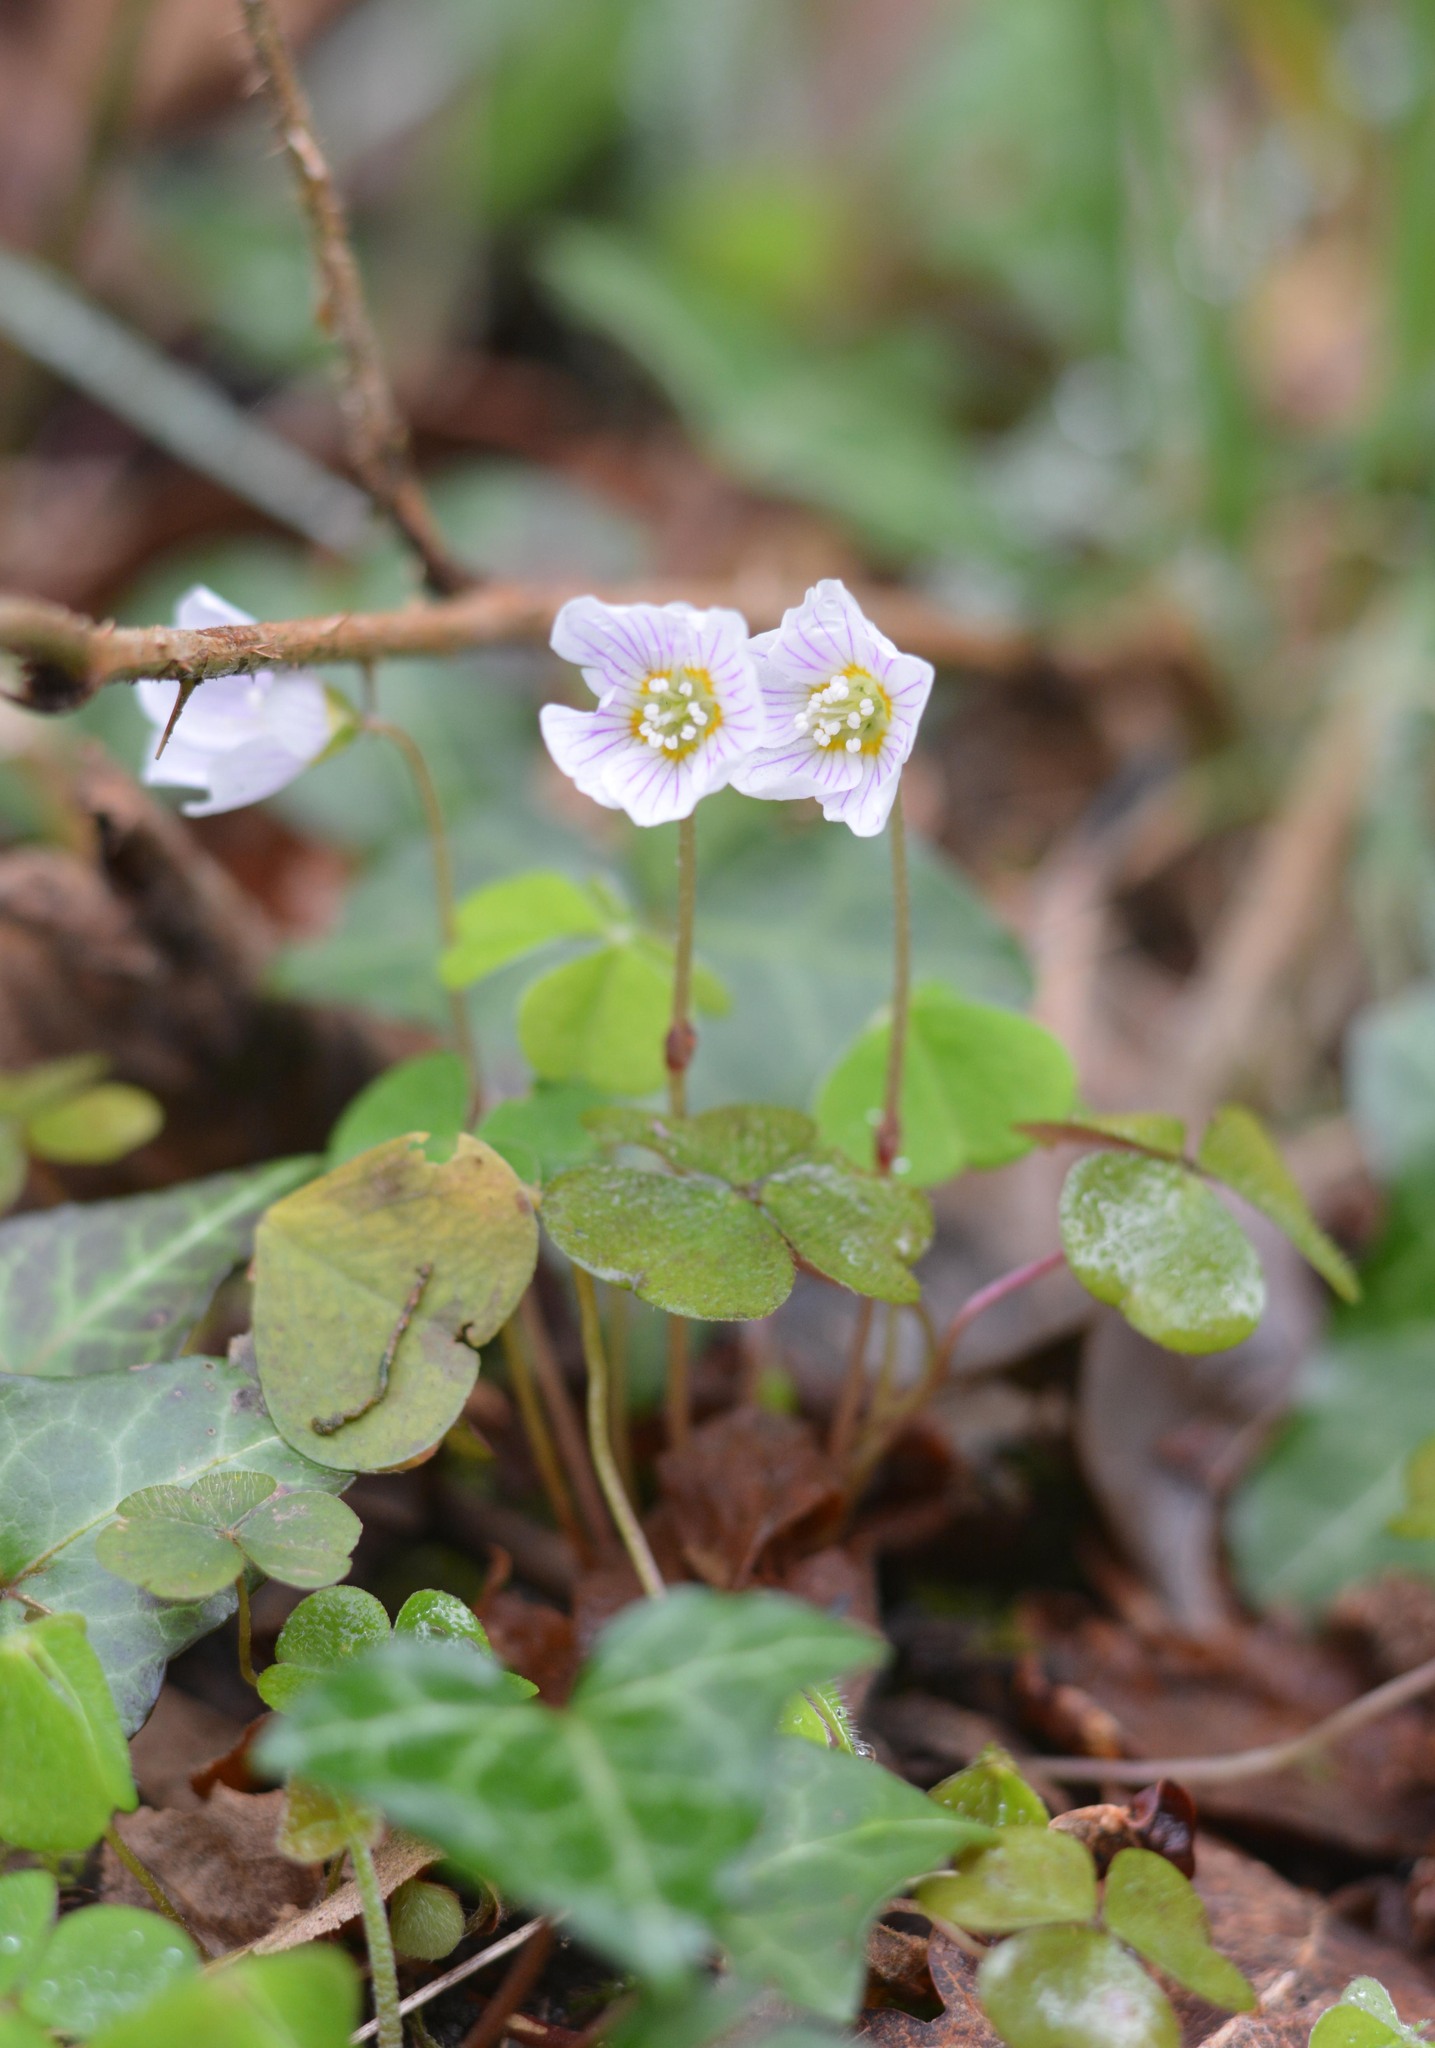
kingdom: Plantae
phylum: Tracheophyta
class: Magnoliopsida
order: Oxalidales
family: Oxalidaceae
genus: Oxalis
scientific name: Oxalis acetosella
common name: Wood-sorrel
